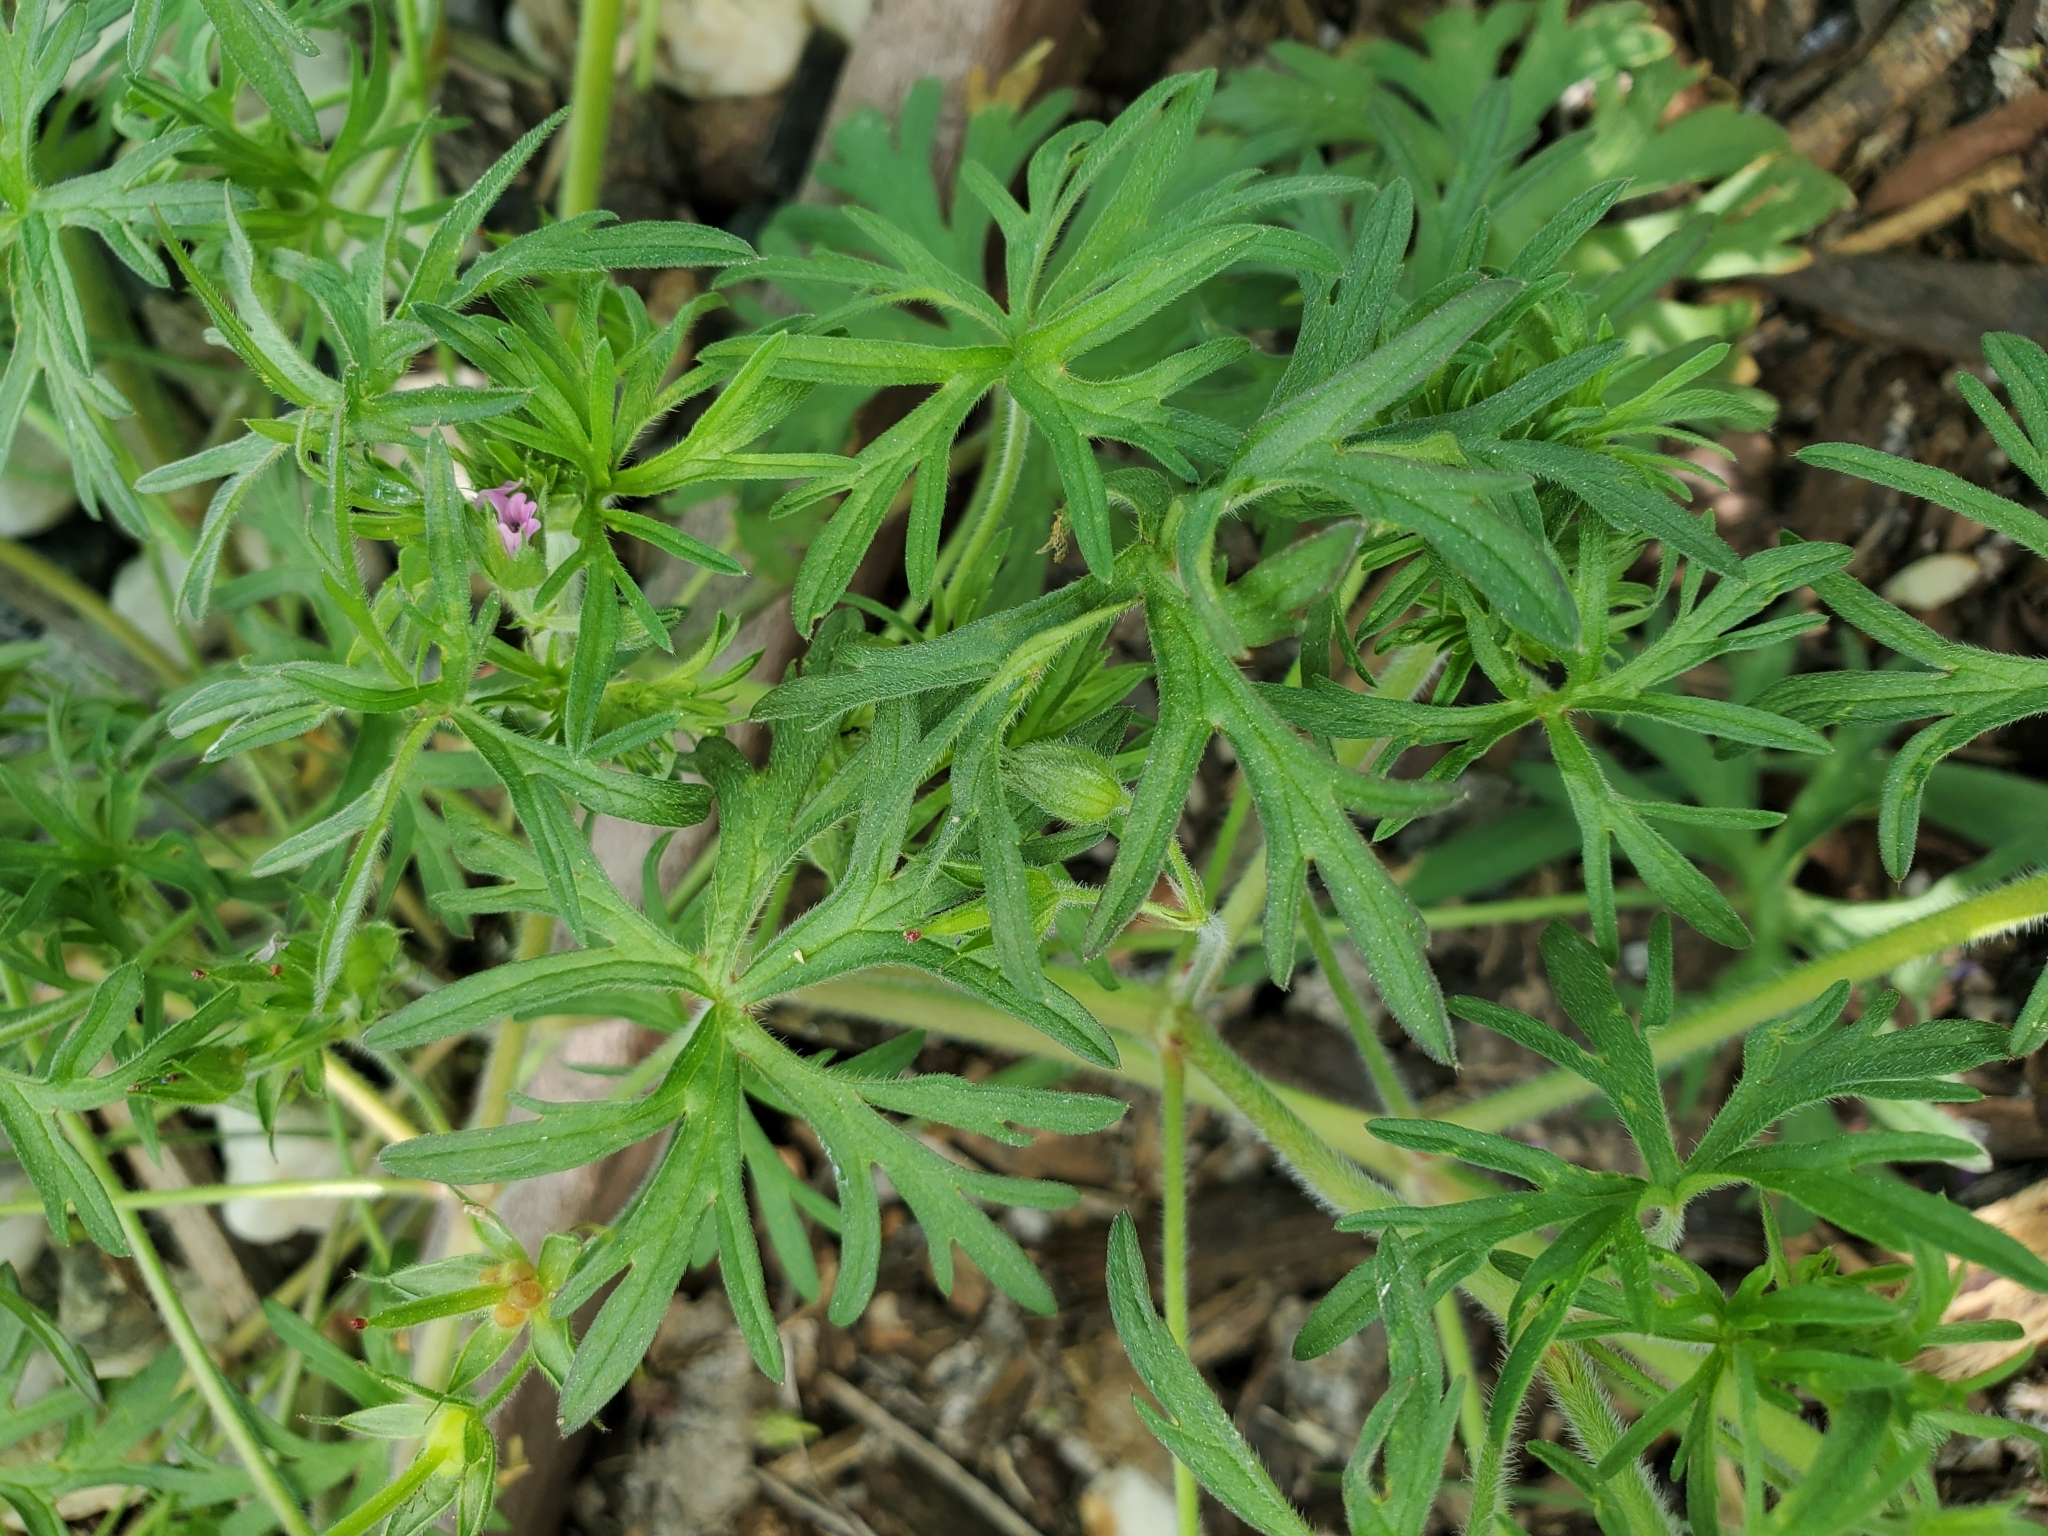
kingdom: Plantae
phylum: Tracheophyta
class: Magnoliopsida
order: Geraniales
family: Geraniaceae
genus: Geranium
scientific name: Geranium dissectum
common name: Cut-leaved crane's-bill
